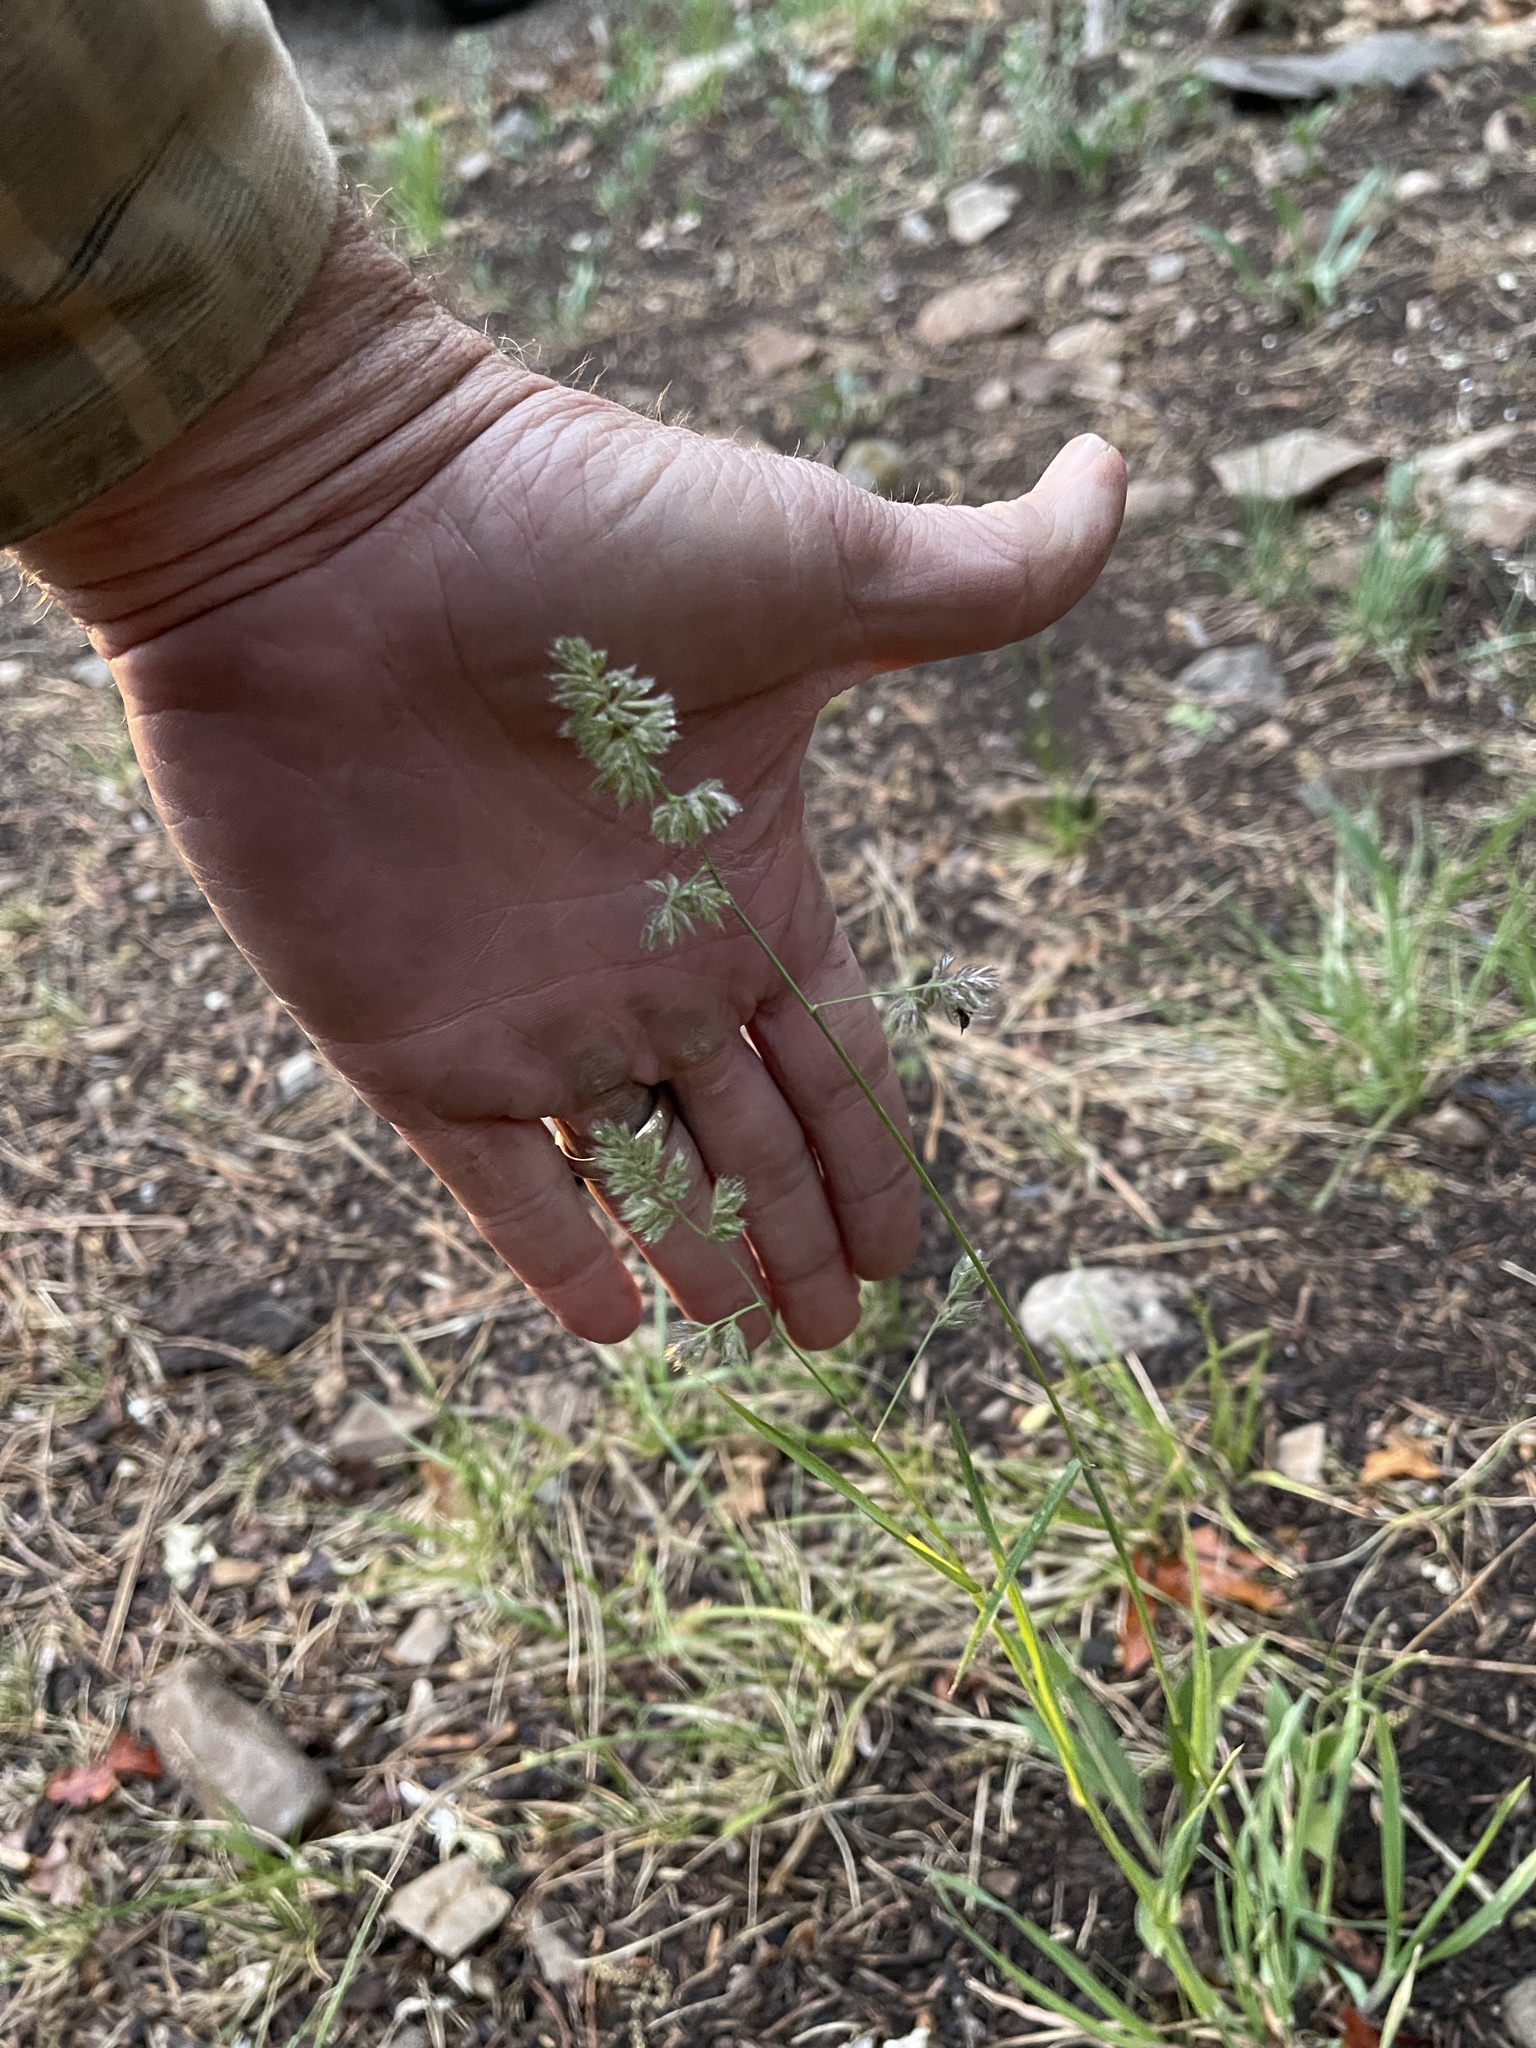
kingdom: Plantae
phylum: Tracheophyta
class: Liliopsida
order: Poales
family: Poaceae
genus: Dactylis
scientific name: Dactylis glomerata
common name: Orchardgrass
